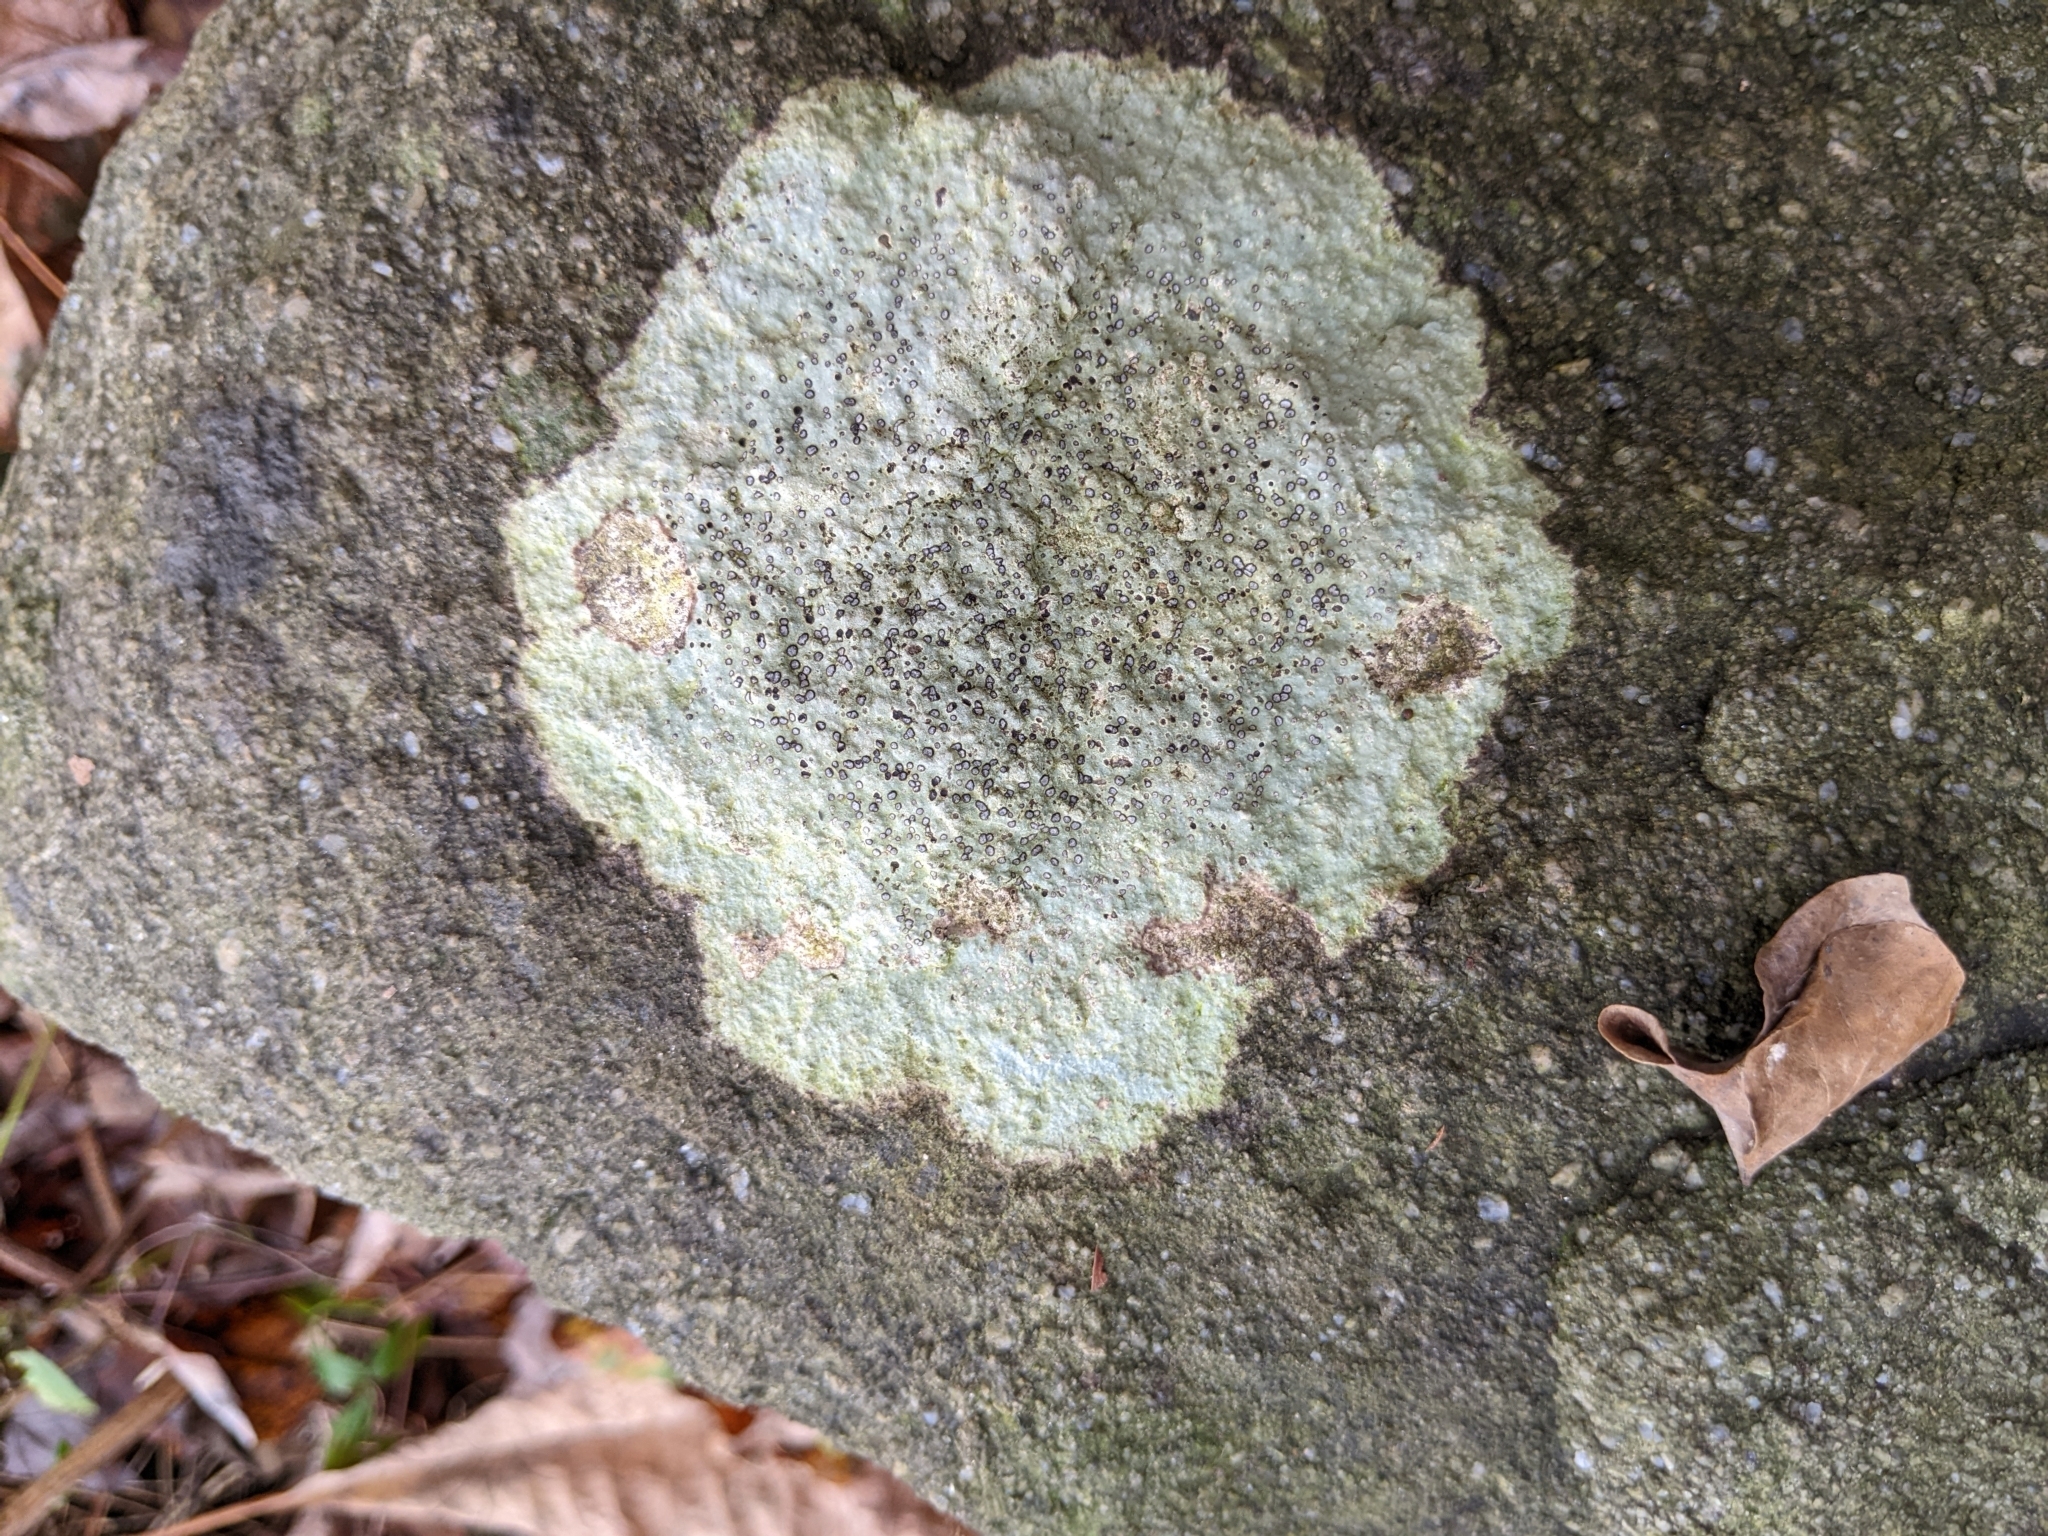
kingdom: Fungi
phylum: Ascomycota
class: Lecanoromycetes
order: Lecideales
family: Lecideaceae
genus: Porpidia
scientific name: Porpidia albocaerulescens
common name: Smokey-eyed boulder lichen
